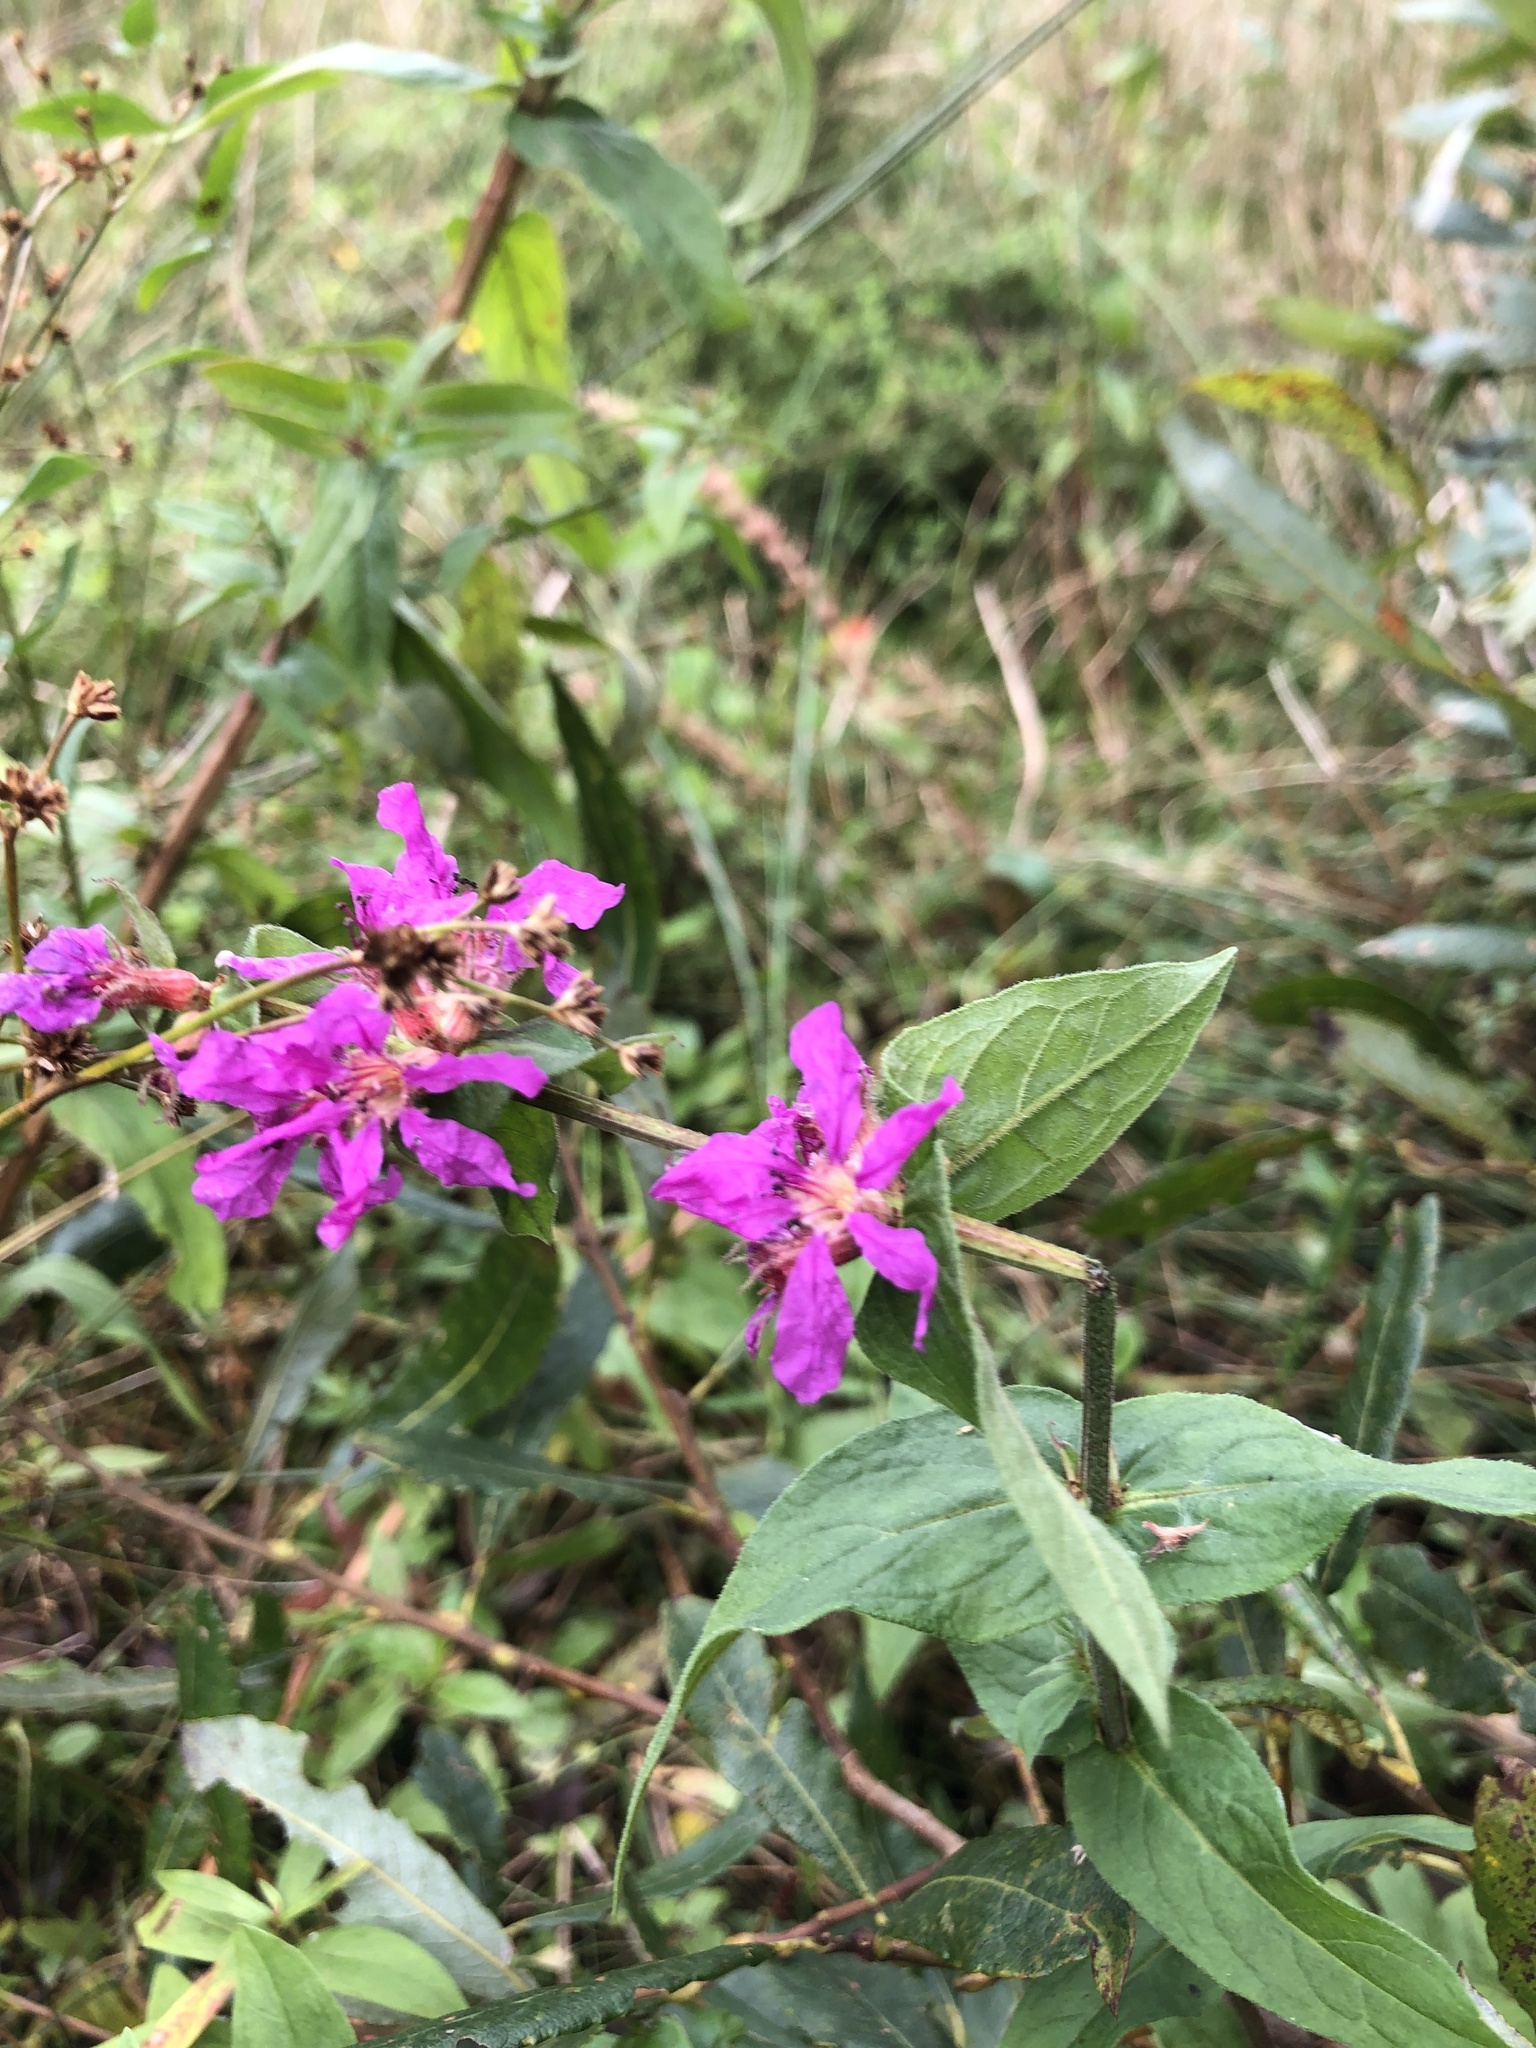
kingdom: Plantae
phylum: Tracheophyta
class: Magnoliopsida
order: Myrtales
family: Lythraceae
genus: Lythrum
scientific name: Lythrum salicaria
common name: Purple loosestrife
